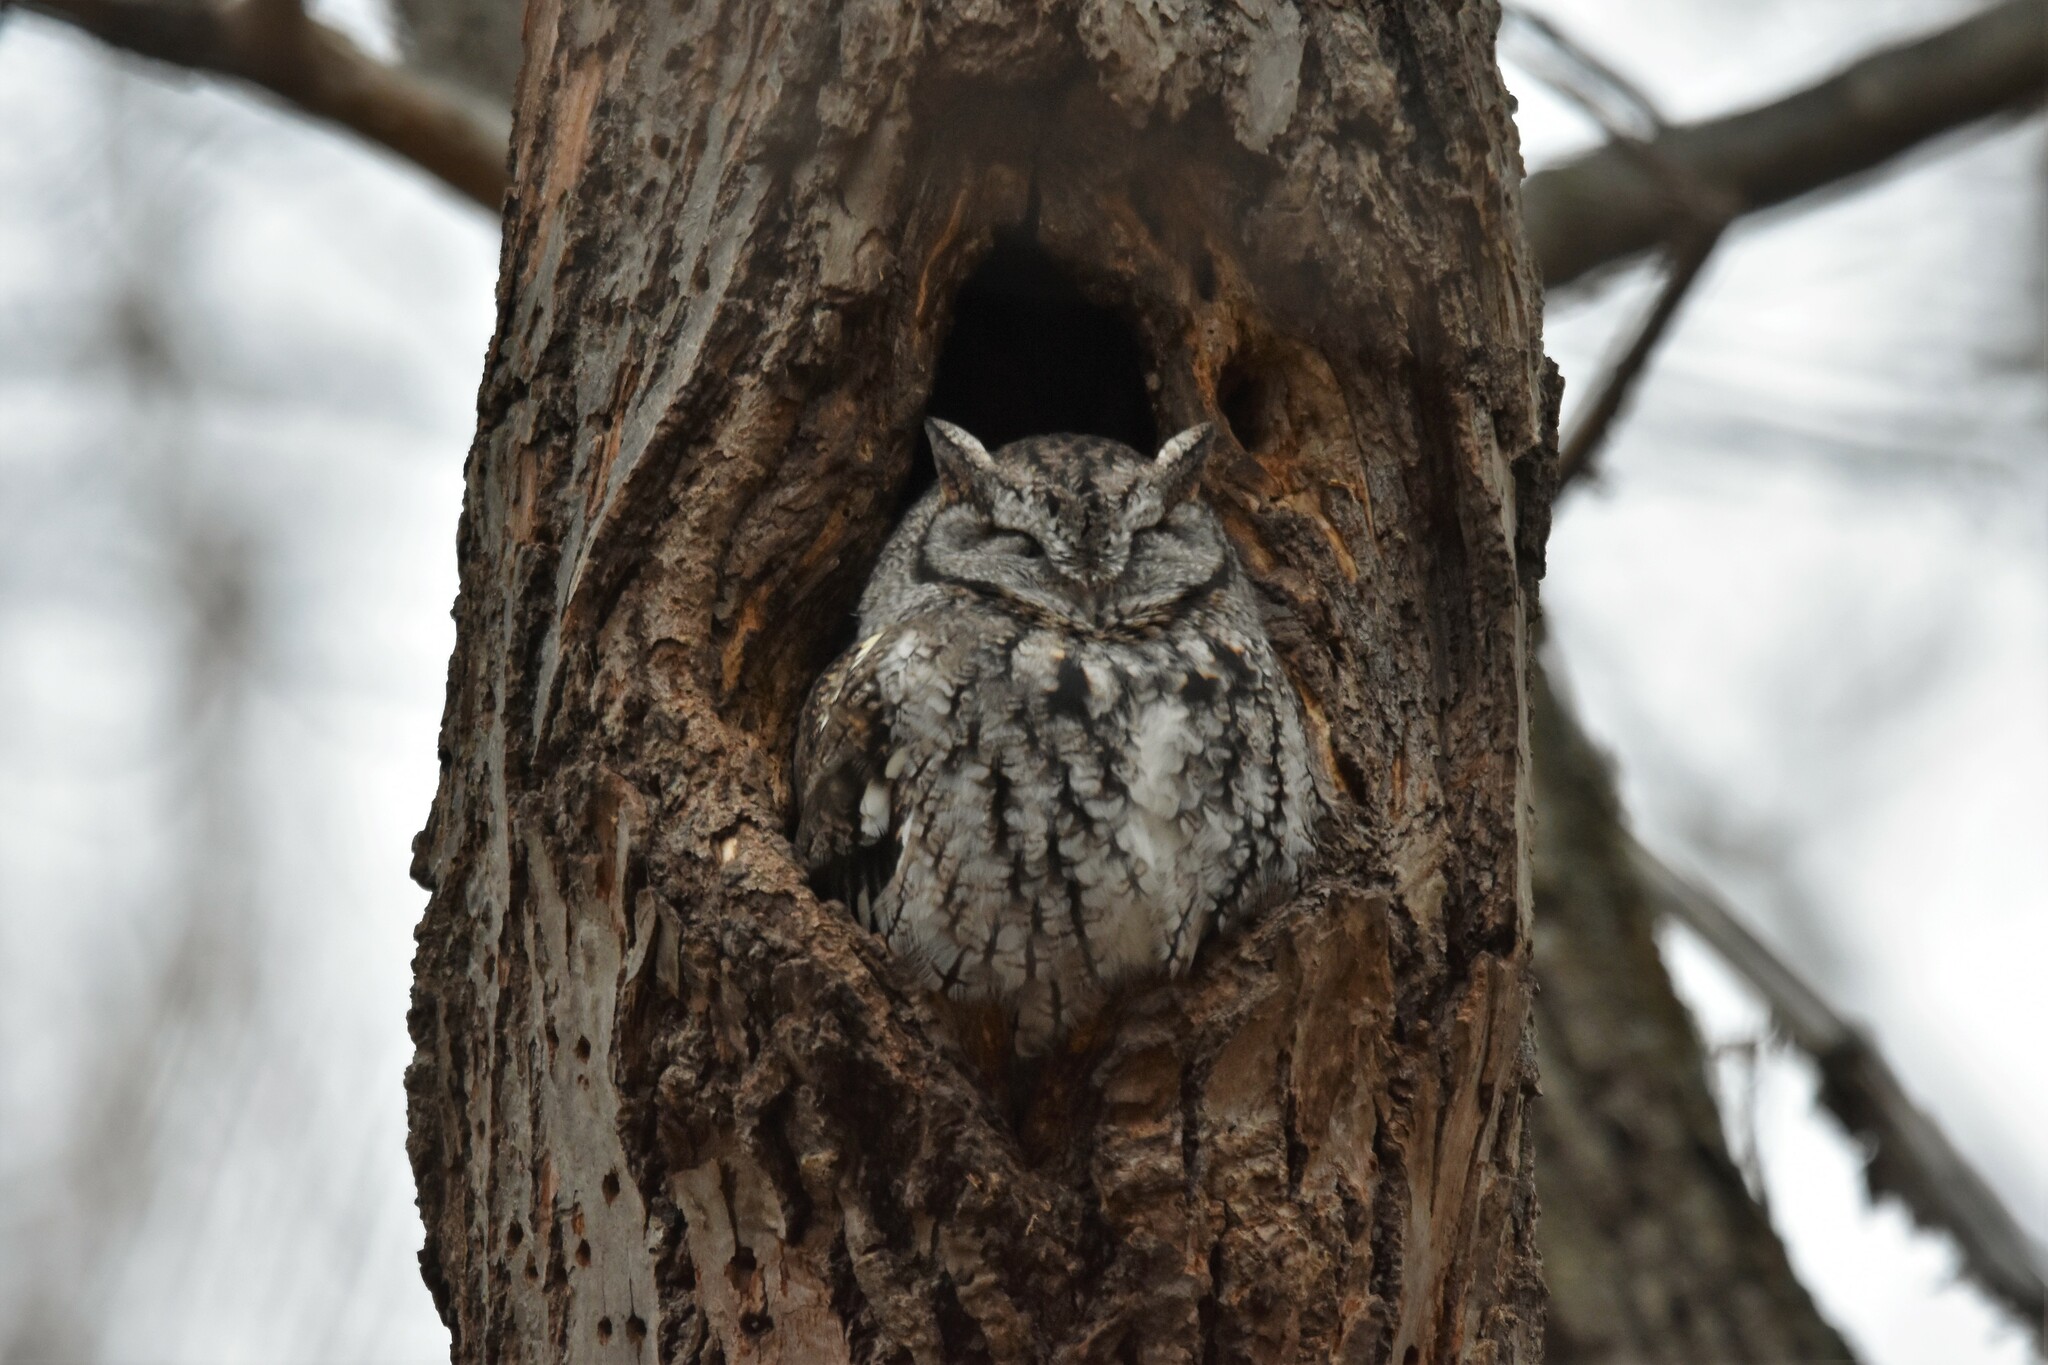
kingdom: Animalia
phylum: Chordata
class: Aves
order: Strigiformes
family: Strigidae
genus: Megascops
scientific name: Megascops asio
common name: Eastern screech-owl
